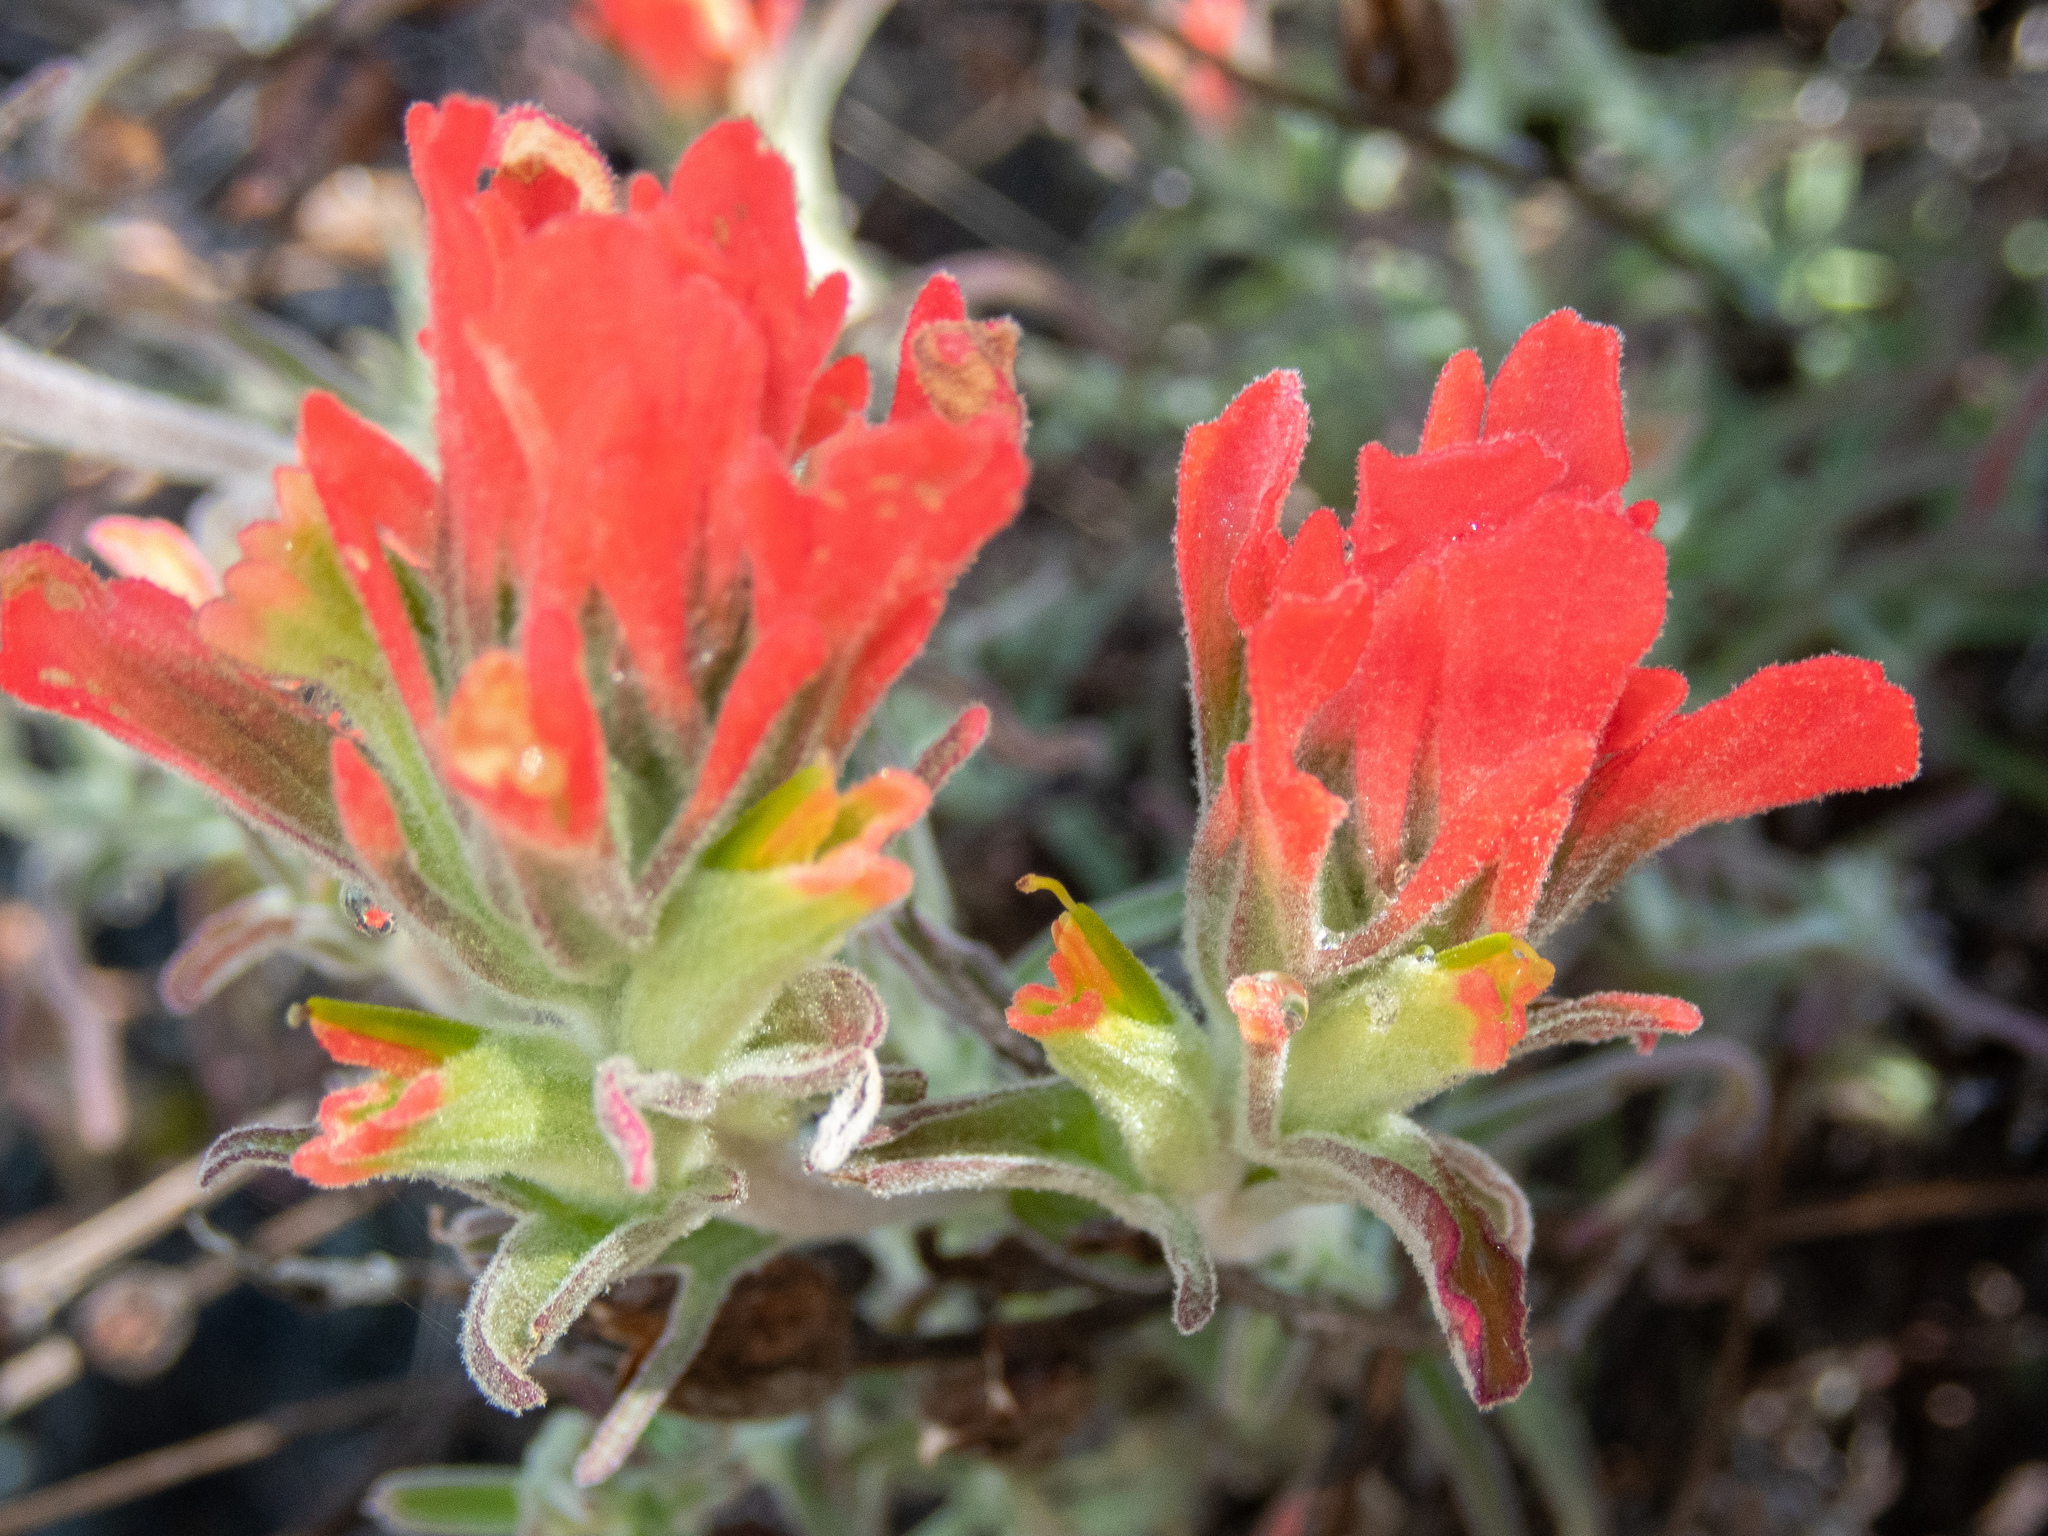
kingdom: Plantae
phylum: Tracheophyta
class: Magnoliopsida
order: Lamiales
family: Orobanchaceae
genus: Castilleja
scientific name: Castilleja foliolosa
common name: Woolly indian paintbrush
